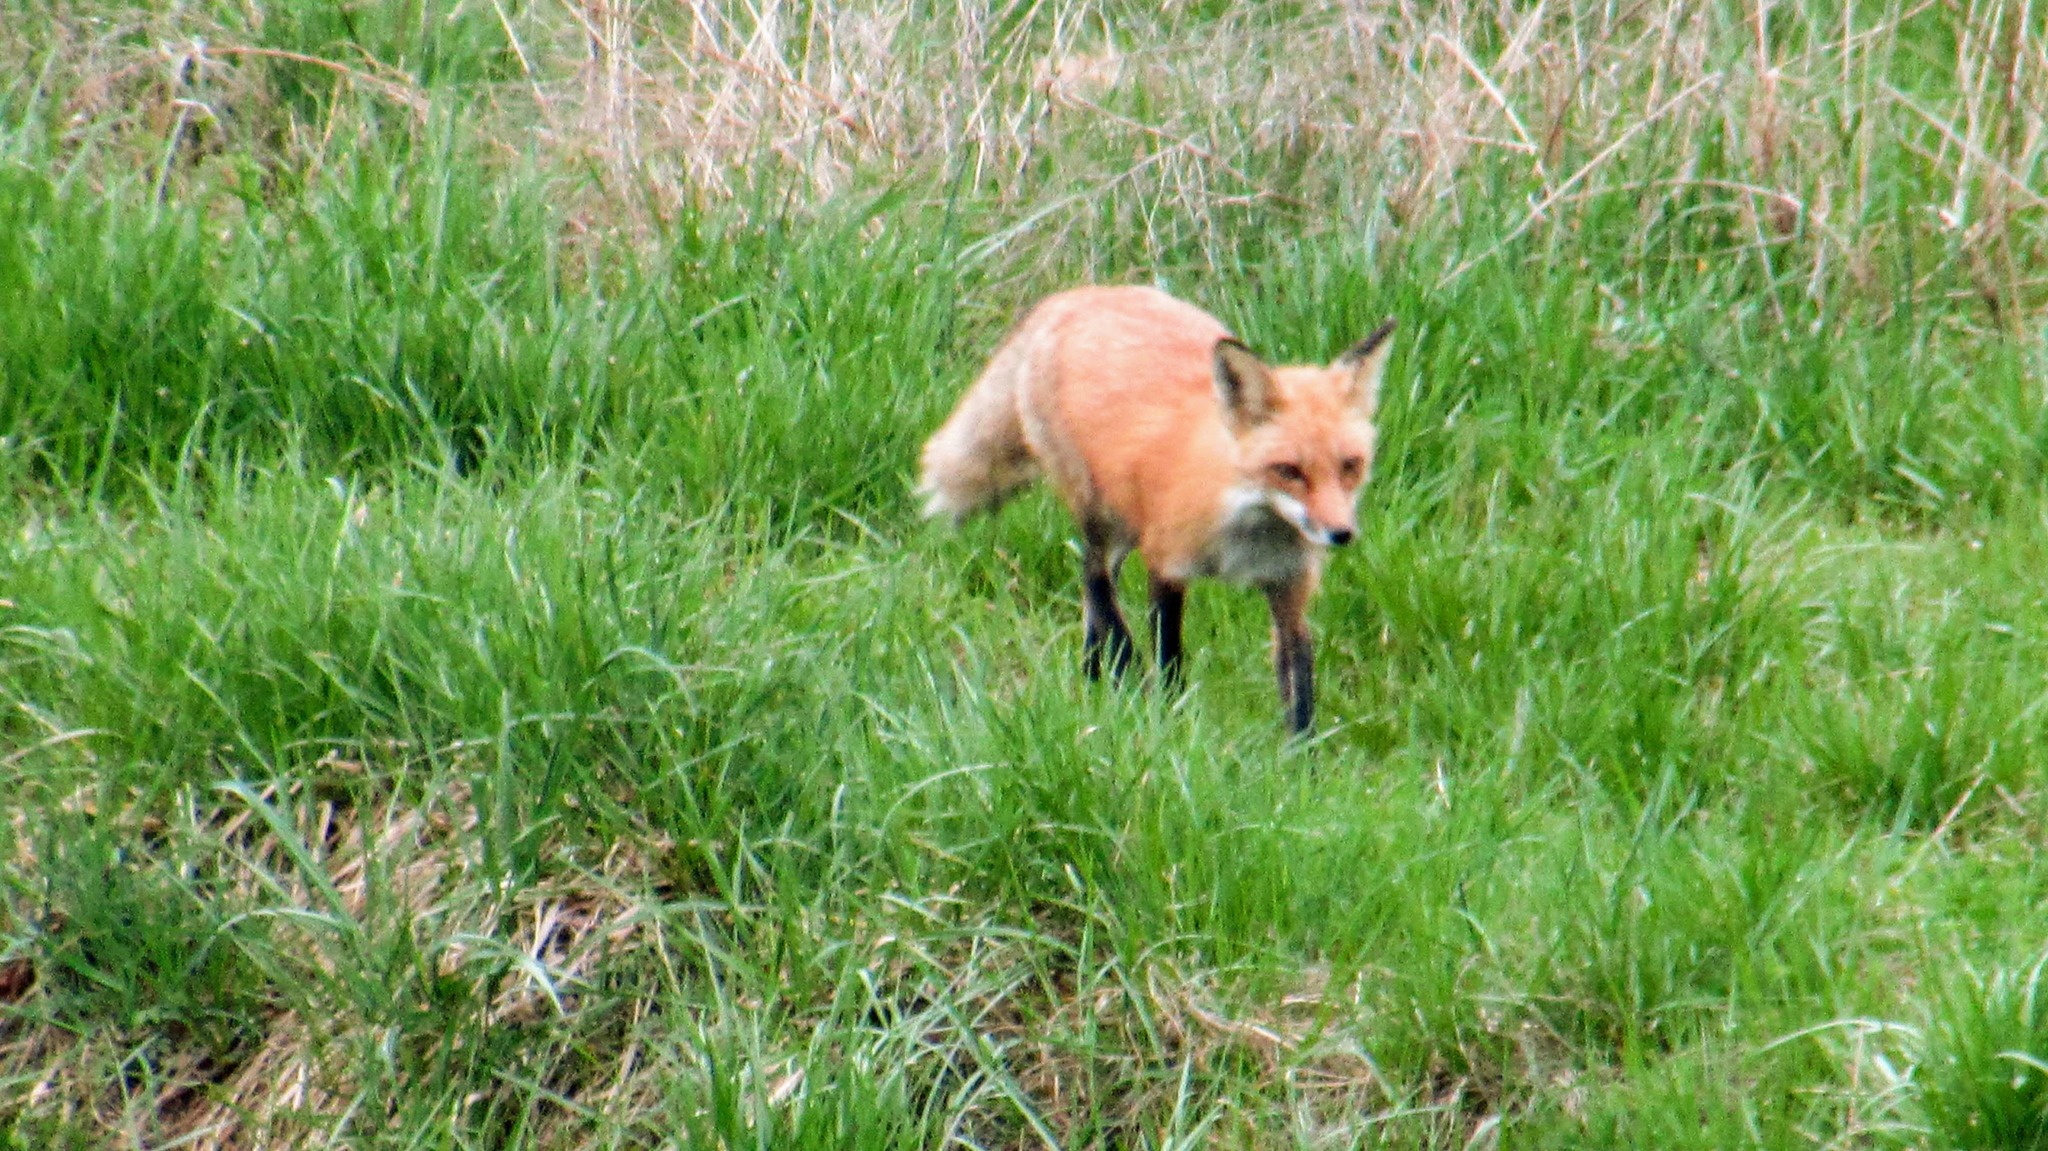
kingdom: Animalia
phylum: Chordata
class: Mammalia
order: Carnivora
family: Canidae
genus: Vulpes
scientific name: Vulpes vulpes
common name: Red fox
